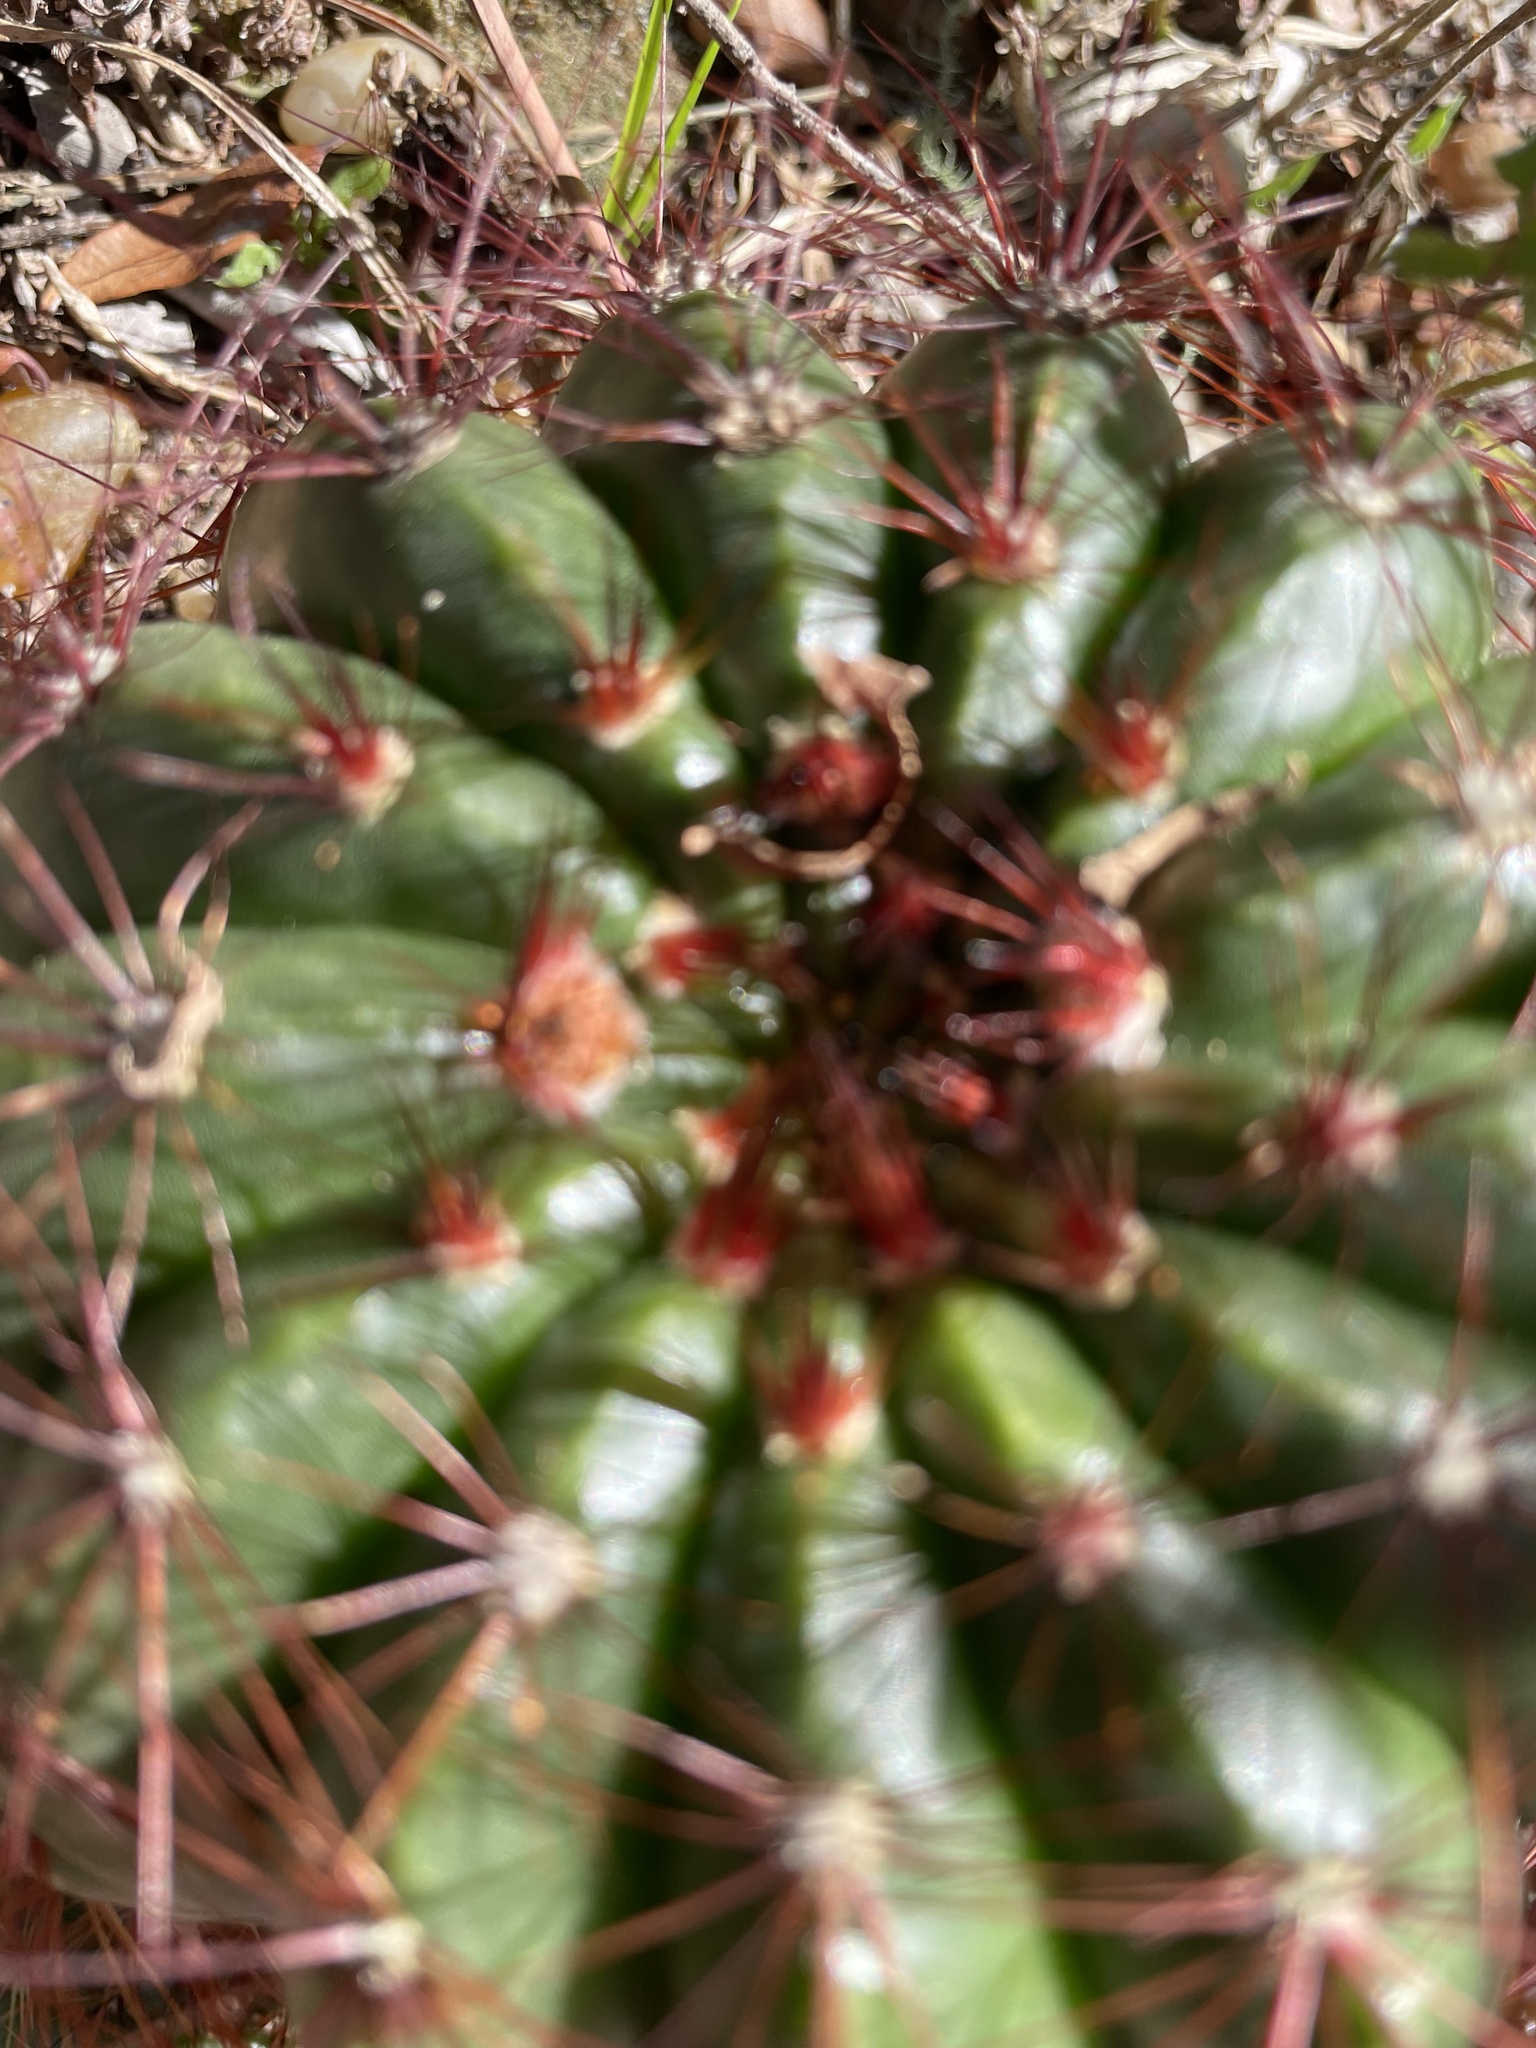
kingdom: Plantae
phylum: Tracheophyta
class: Magnoliopsida
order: Caryophyllales
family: Cactaceae
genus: Parodia
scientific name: Parodia ottonis
